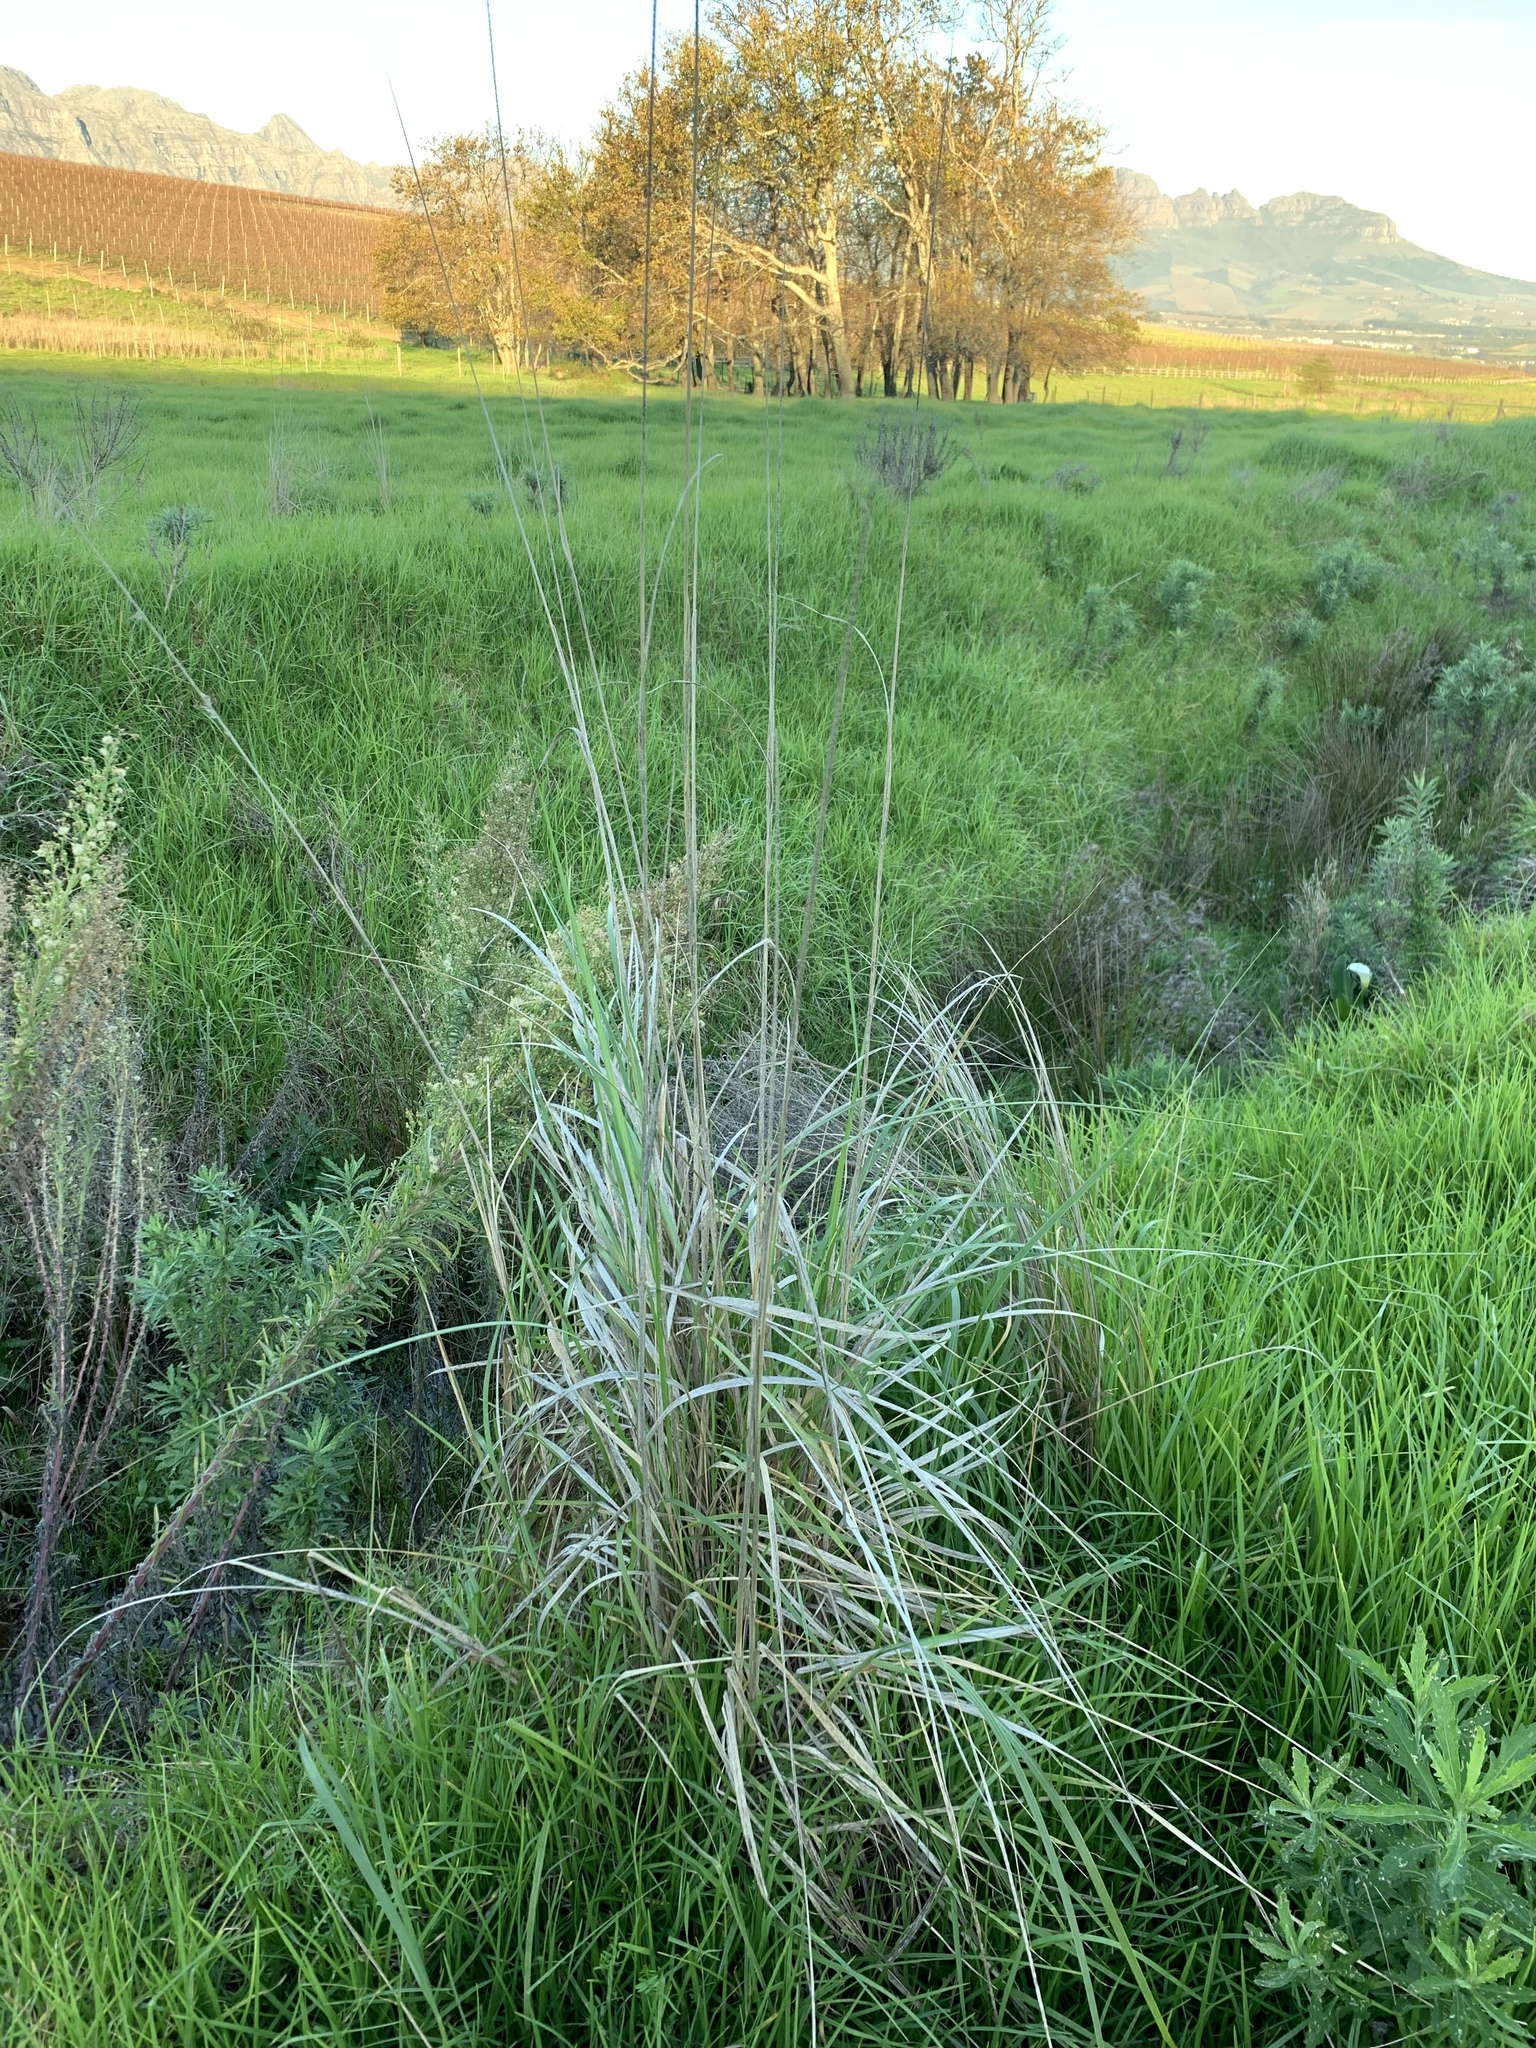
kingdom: Plantae
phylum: Tracheophyta
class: Liliopsida
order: Poales
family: Poaceae
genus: Cenchrus
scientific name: Cenchrus caudatus
